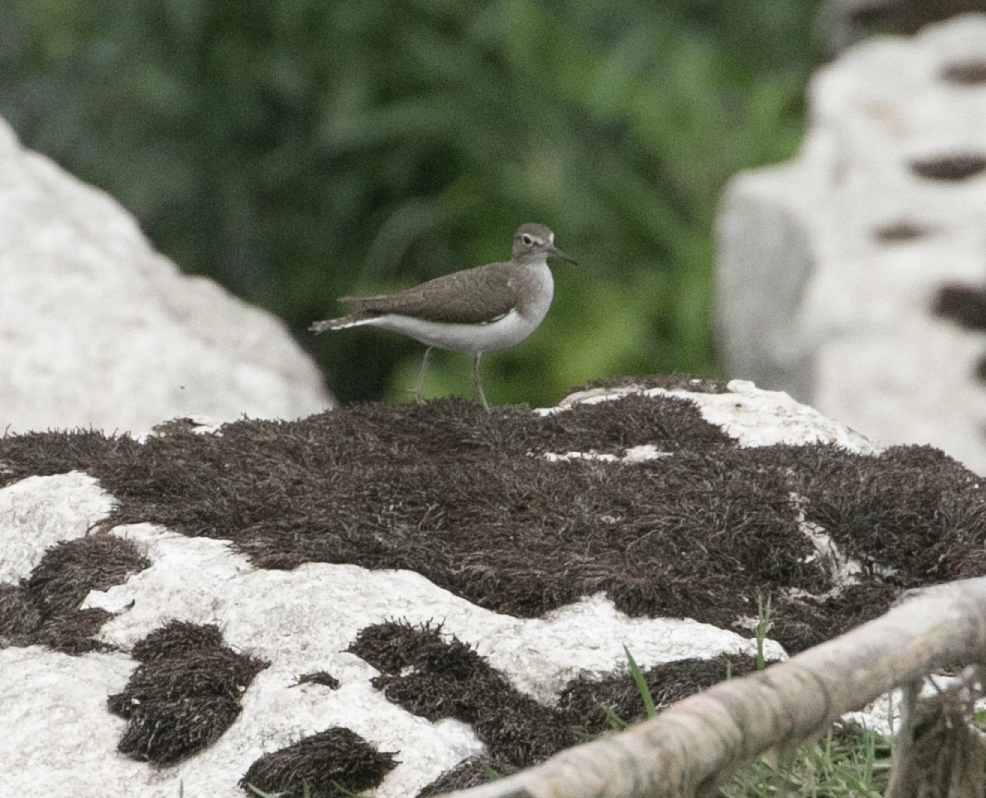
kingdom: Animalia
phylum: Chordata
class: Aves
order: Charadriiformes
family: Scolopacidae
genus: Actitis
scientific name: Actitis hypoleucos
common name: Common sandpiper
